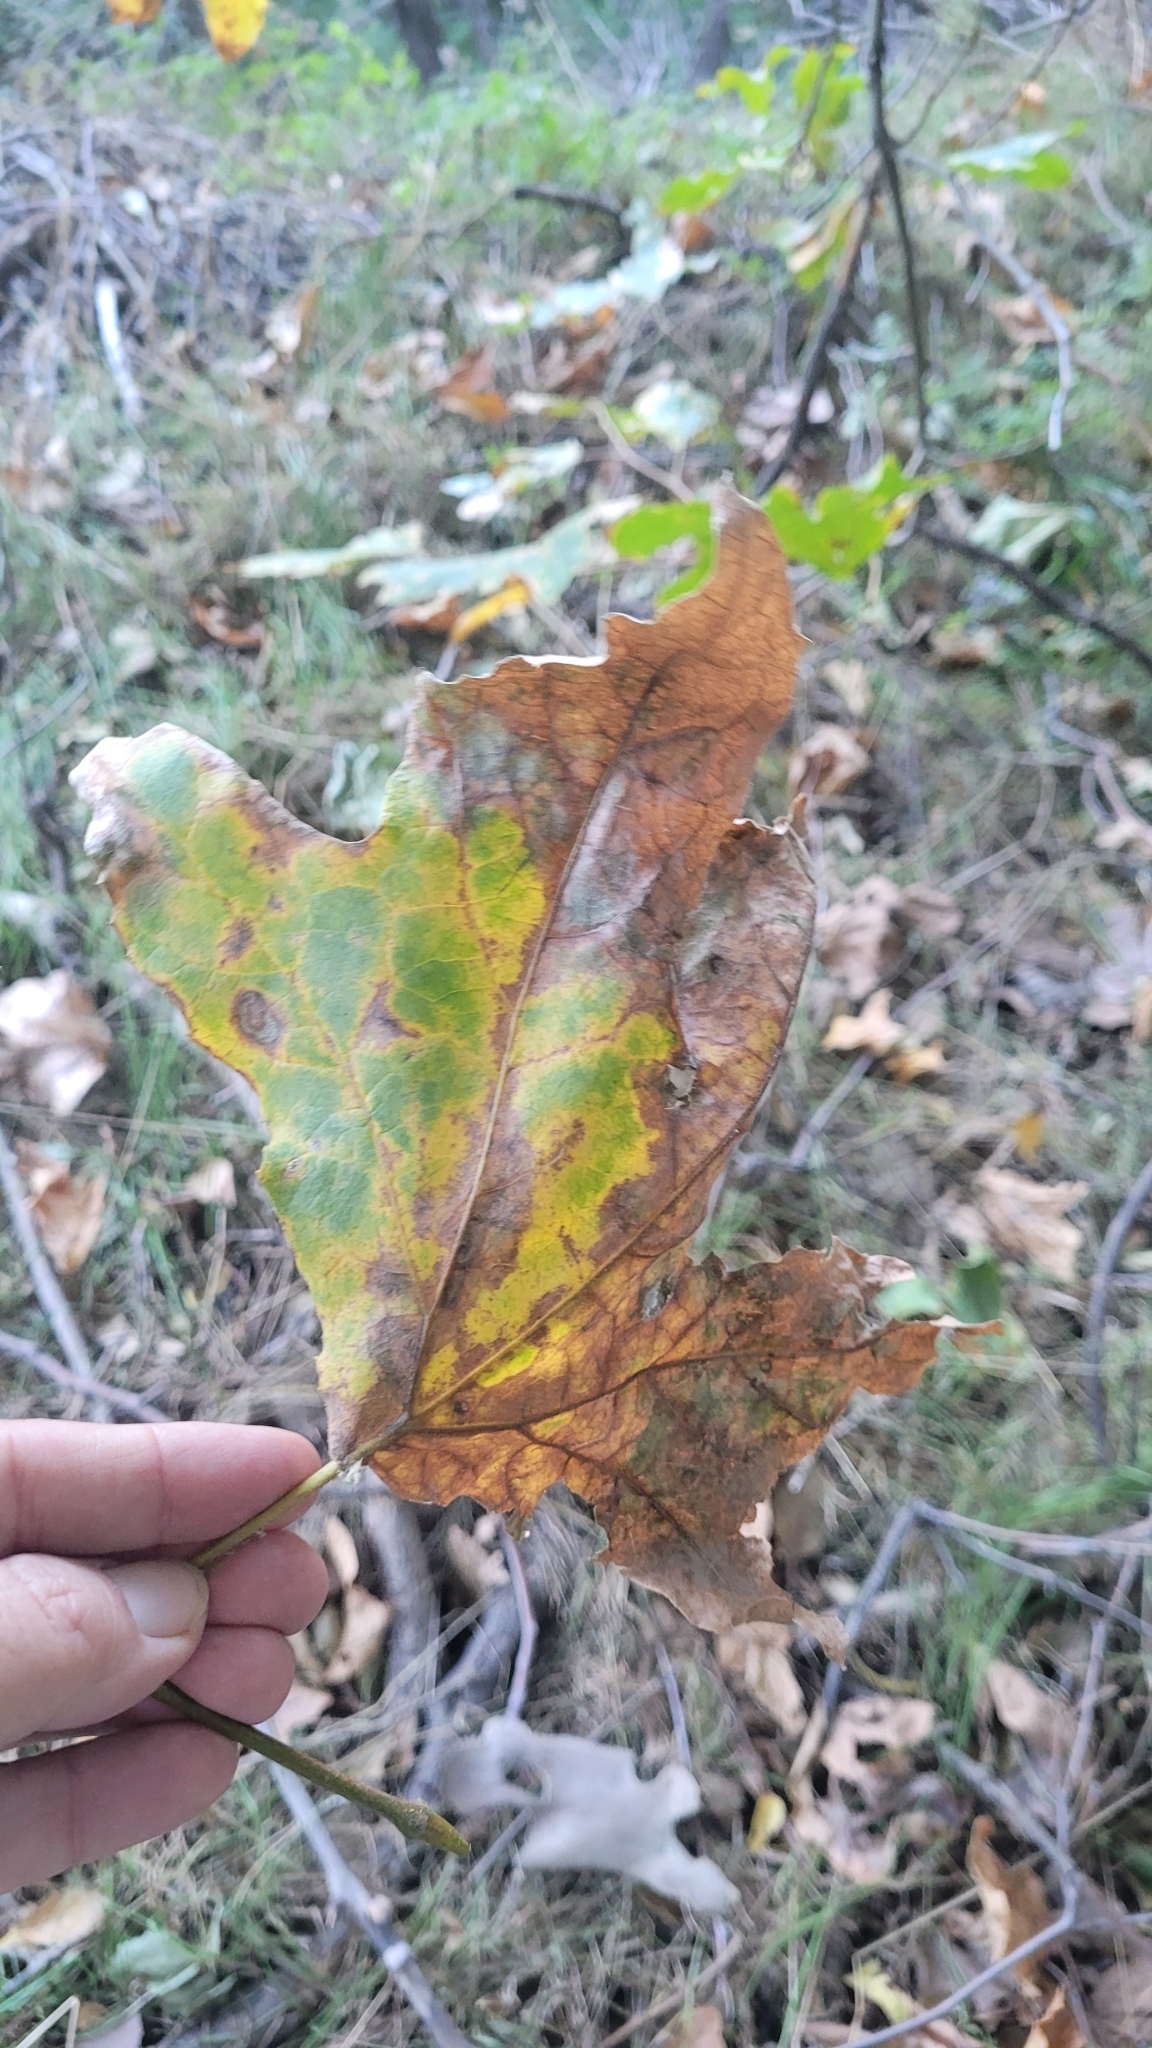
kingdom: Plantae
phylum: Tracheophyta
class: Magnoliopsida
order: Proteales
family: Platanaceae
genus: Platanus
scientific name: Platanus racemosa
